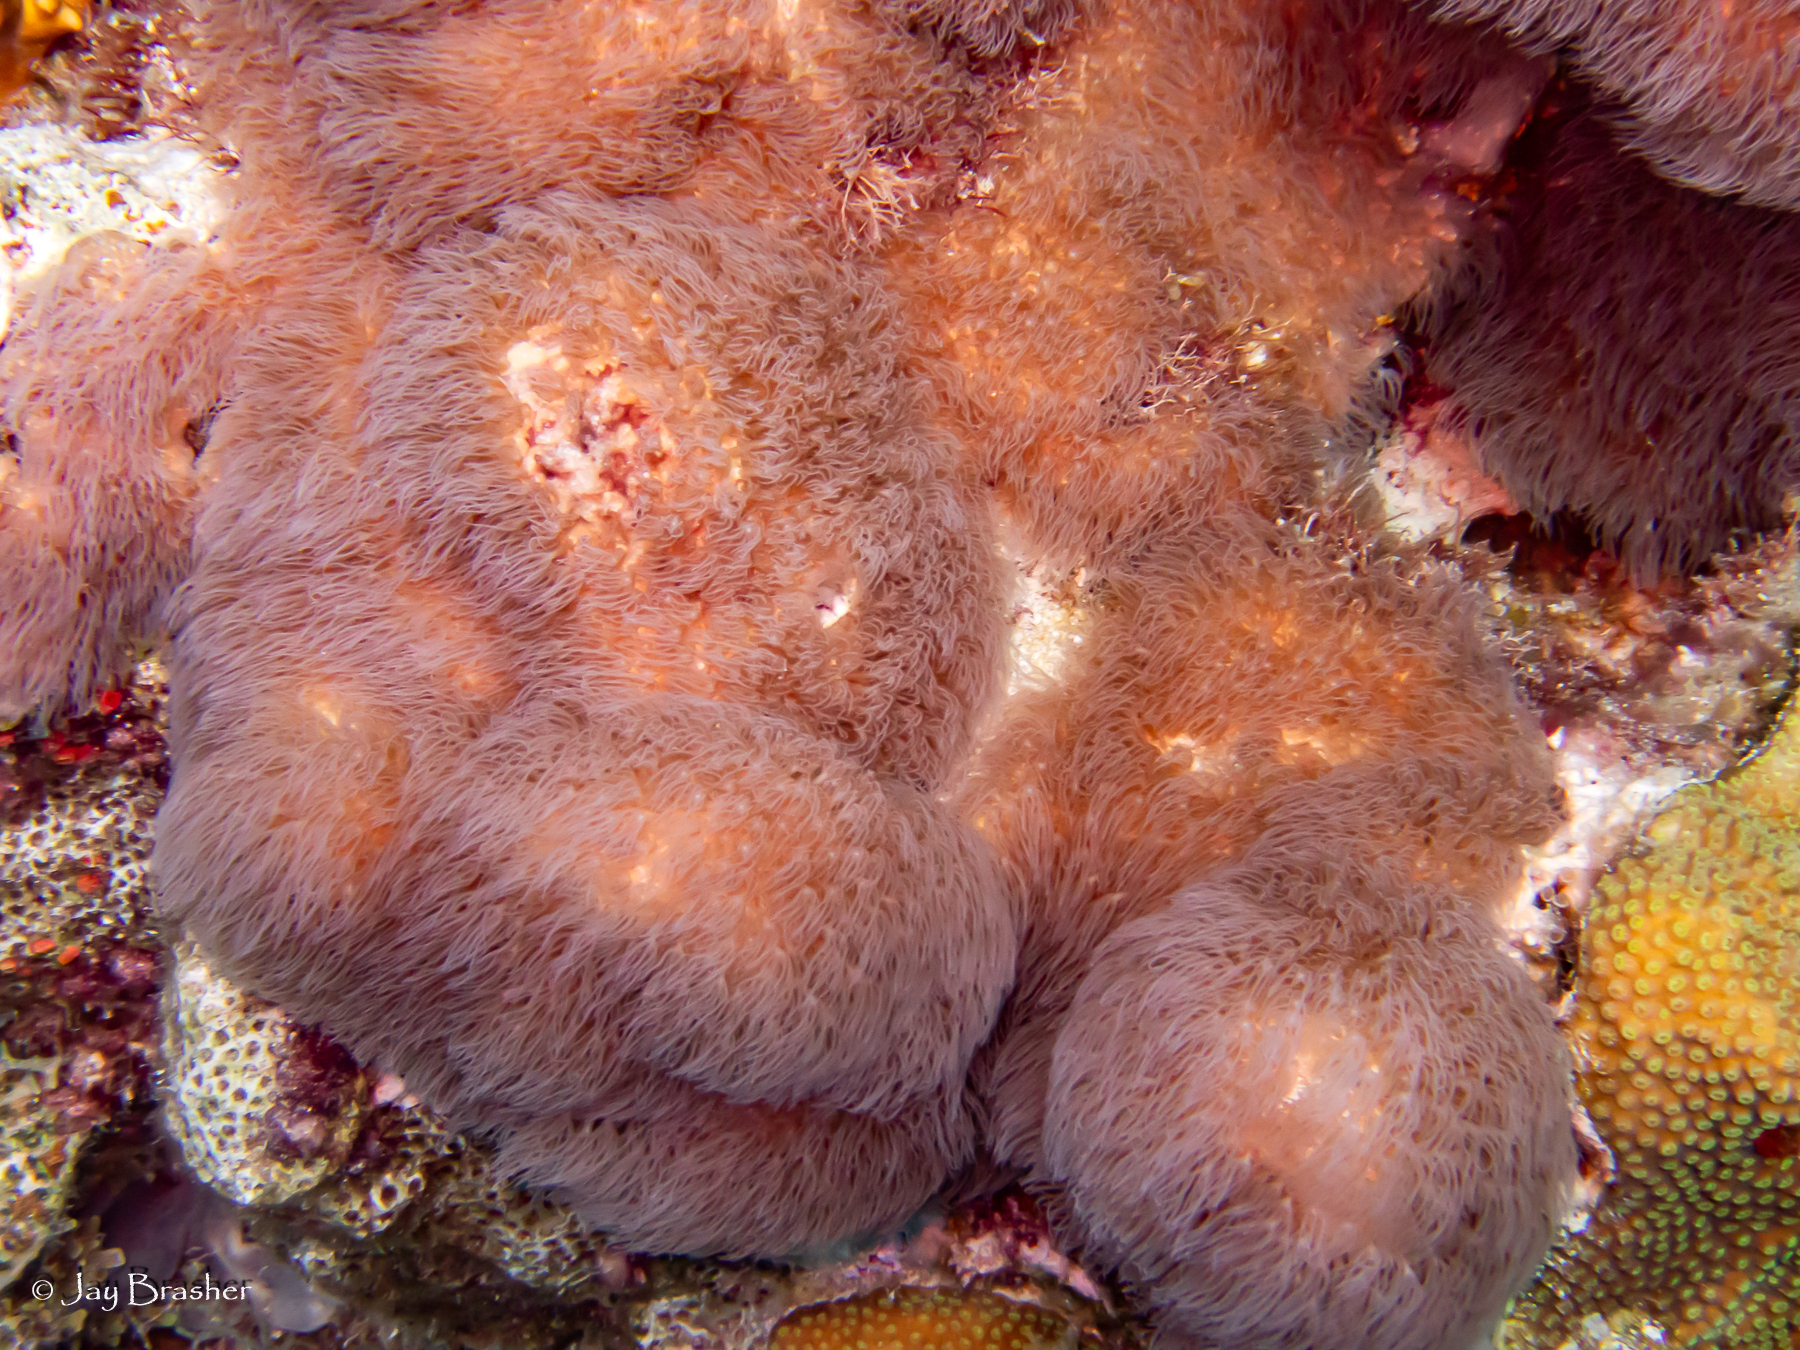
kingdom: Animalia
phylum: Cnidaria
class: Anthozoa
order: Scleralcyonacea
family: Erythropodiidae
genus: Erythropodium
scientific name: Erythropodium caribaeorum
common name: Encrusting gorgonian
